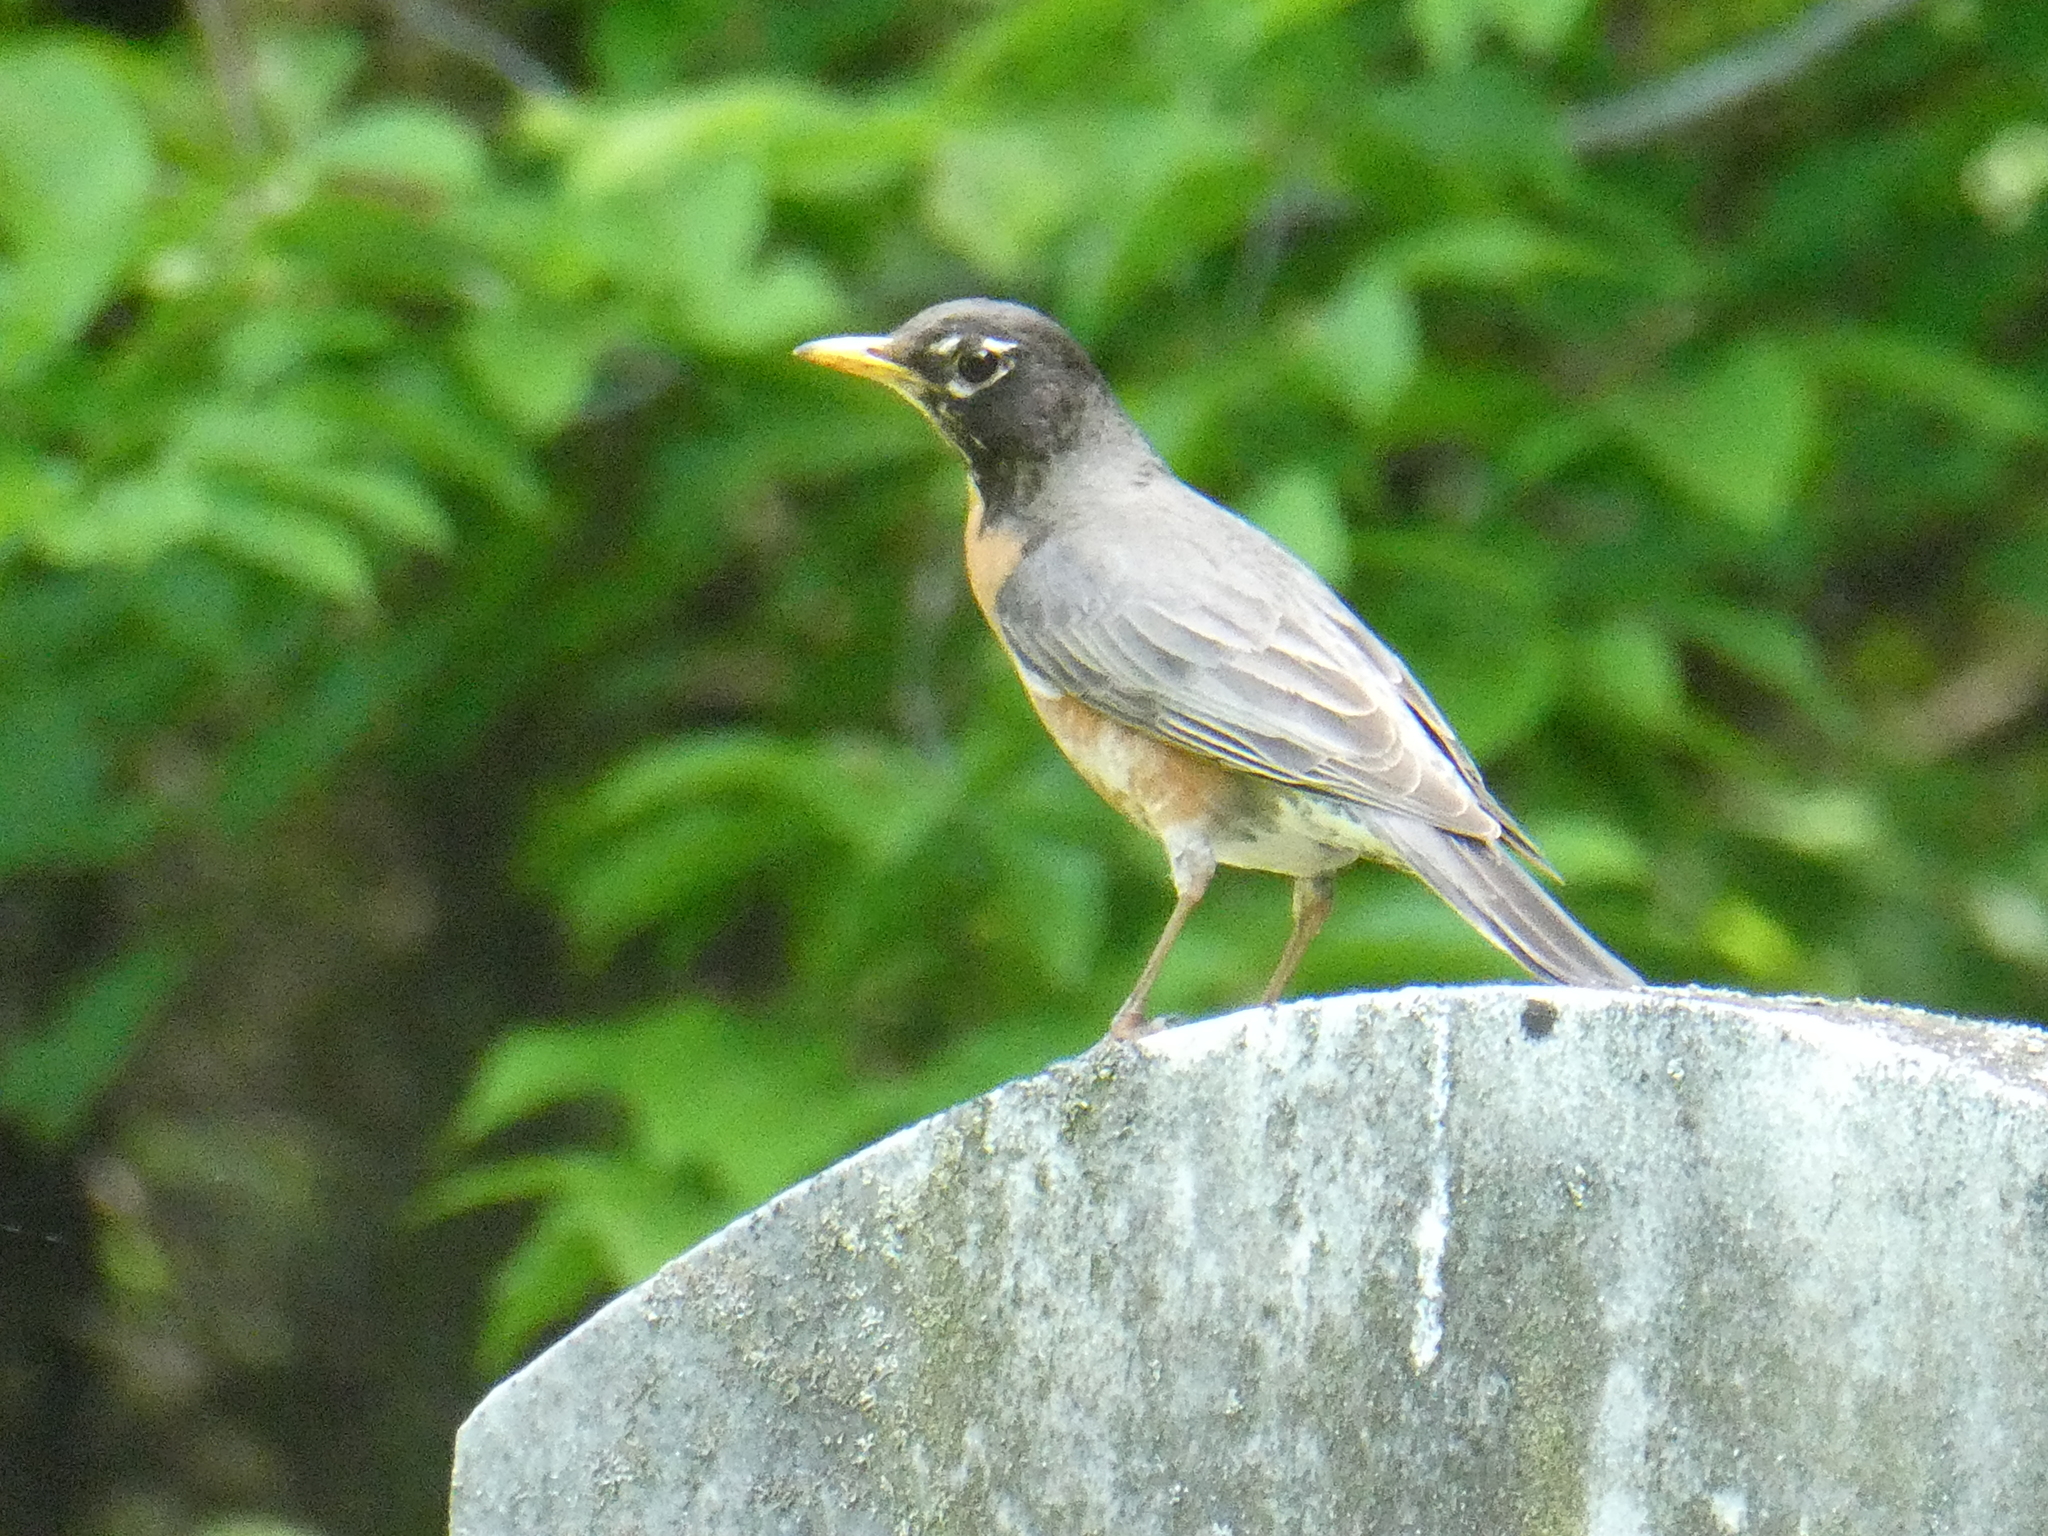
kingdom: Animalia
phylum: Chordata
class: Aves
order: Passeriformes
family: Turdidae
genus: Turdus
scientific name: Turdus migratorius
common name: American robin
